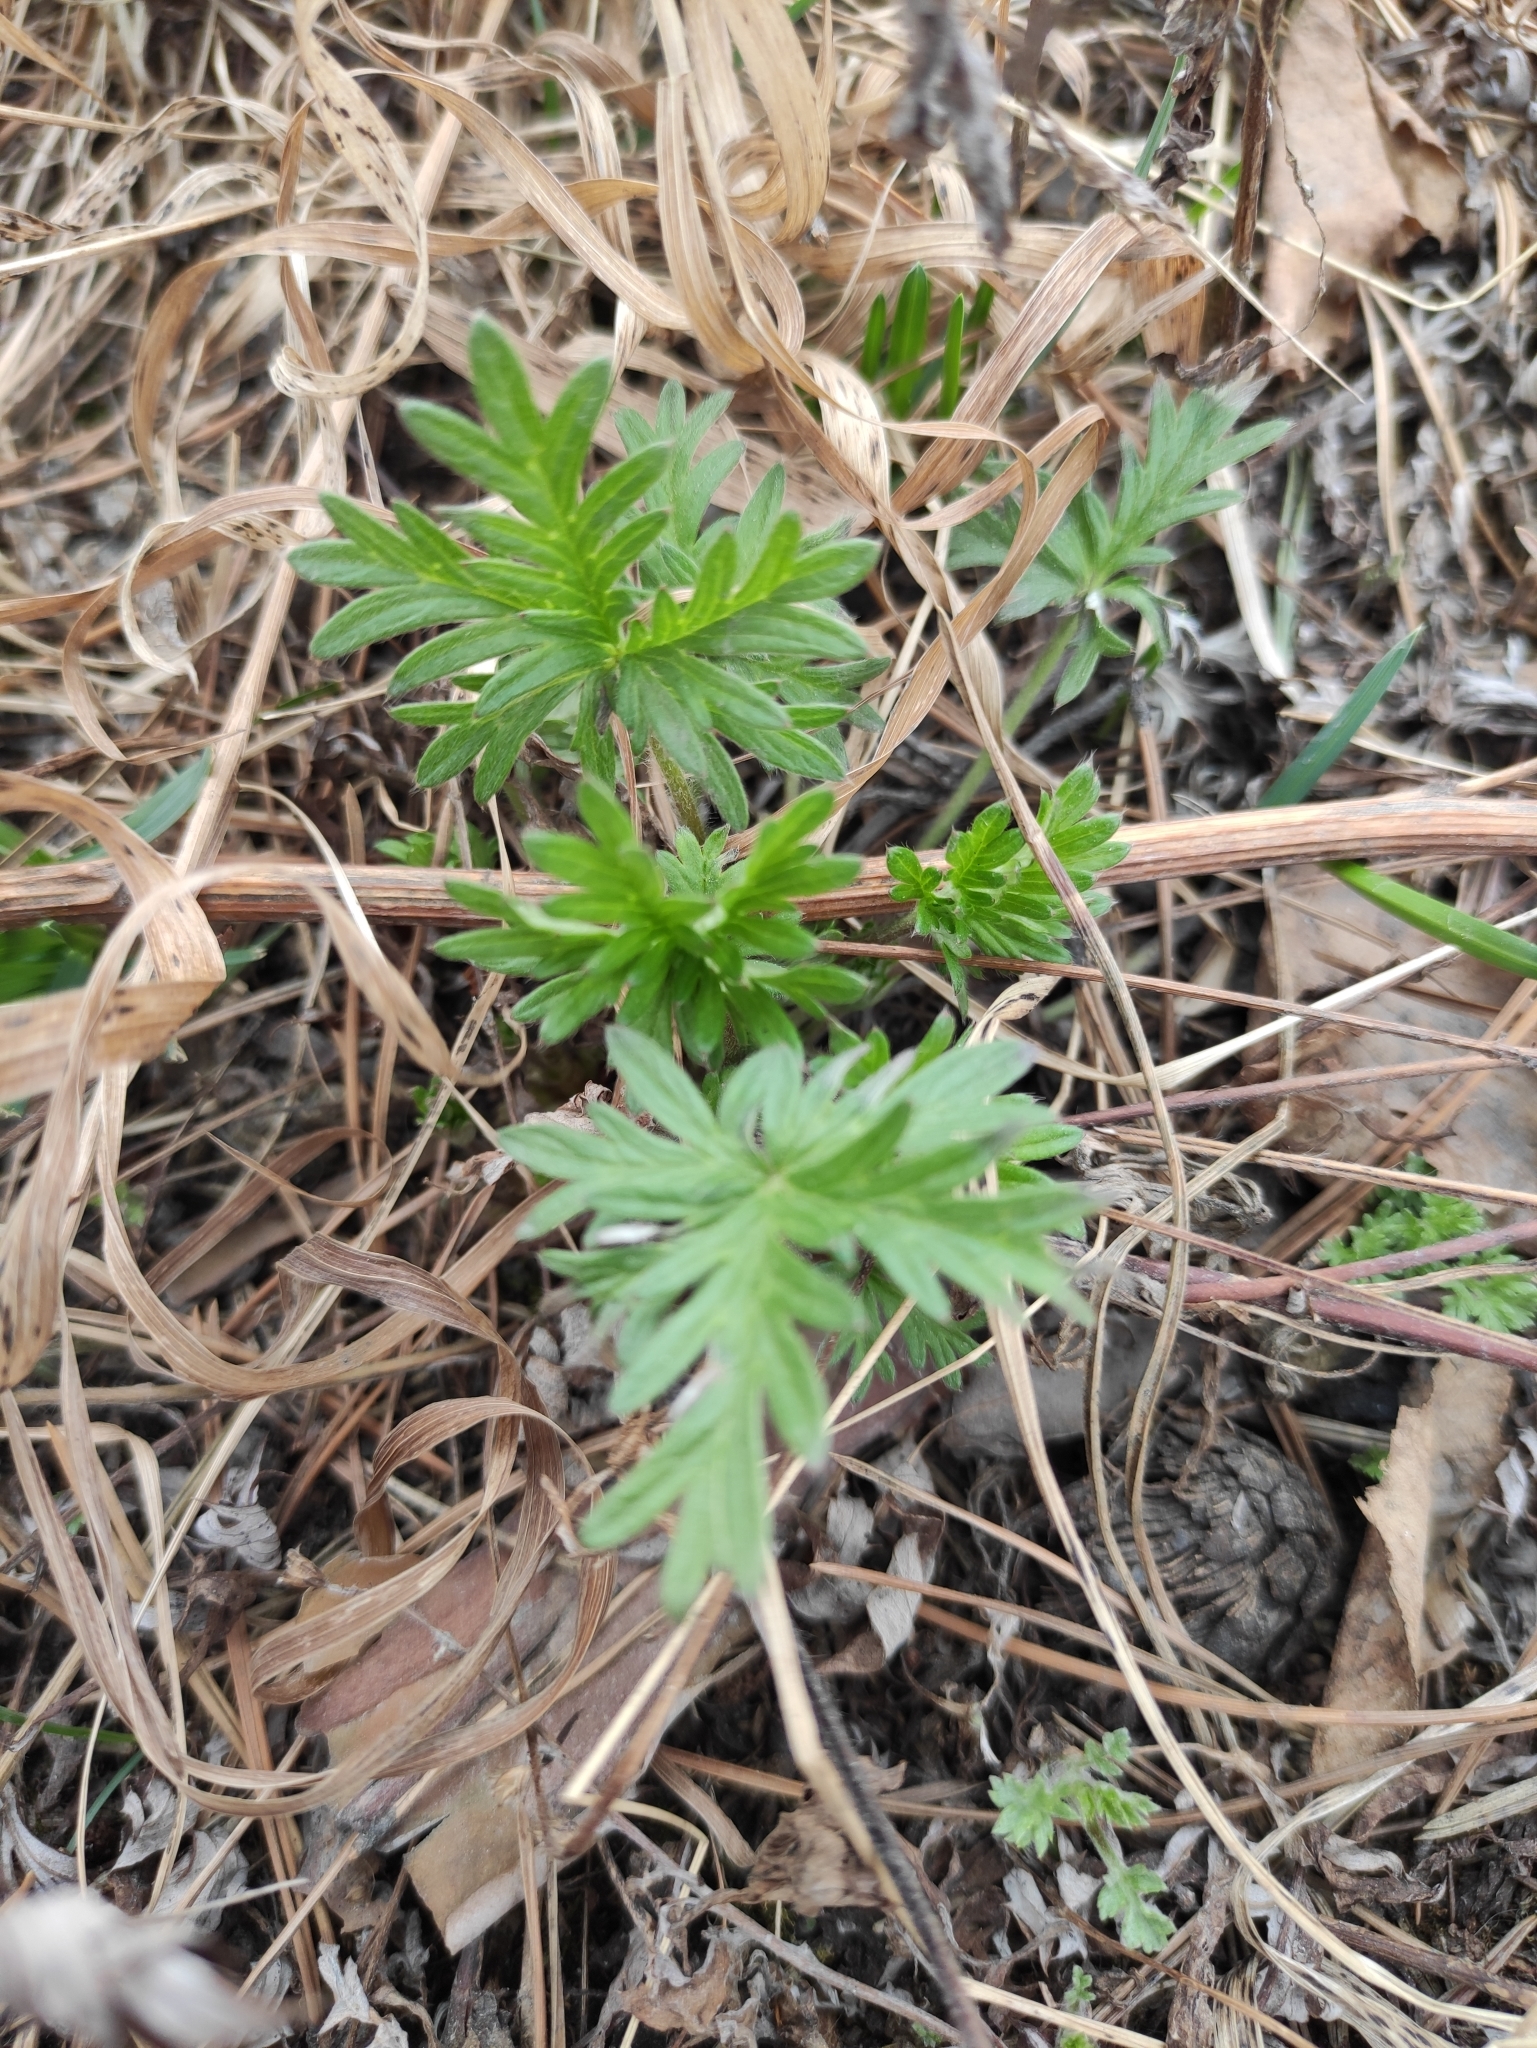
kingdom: Plantae
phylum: Tracheophyta
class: Magnoliopsida
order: Rosales
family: Rosaceae
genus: Potentilla
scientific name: Potentilla angarensis
